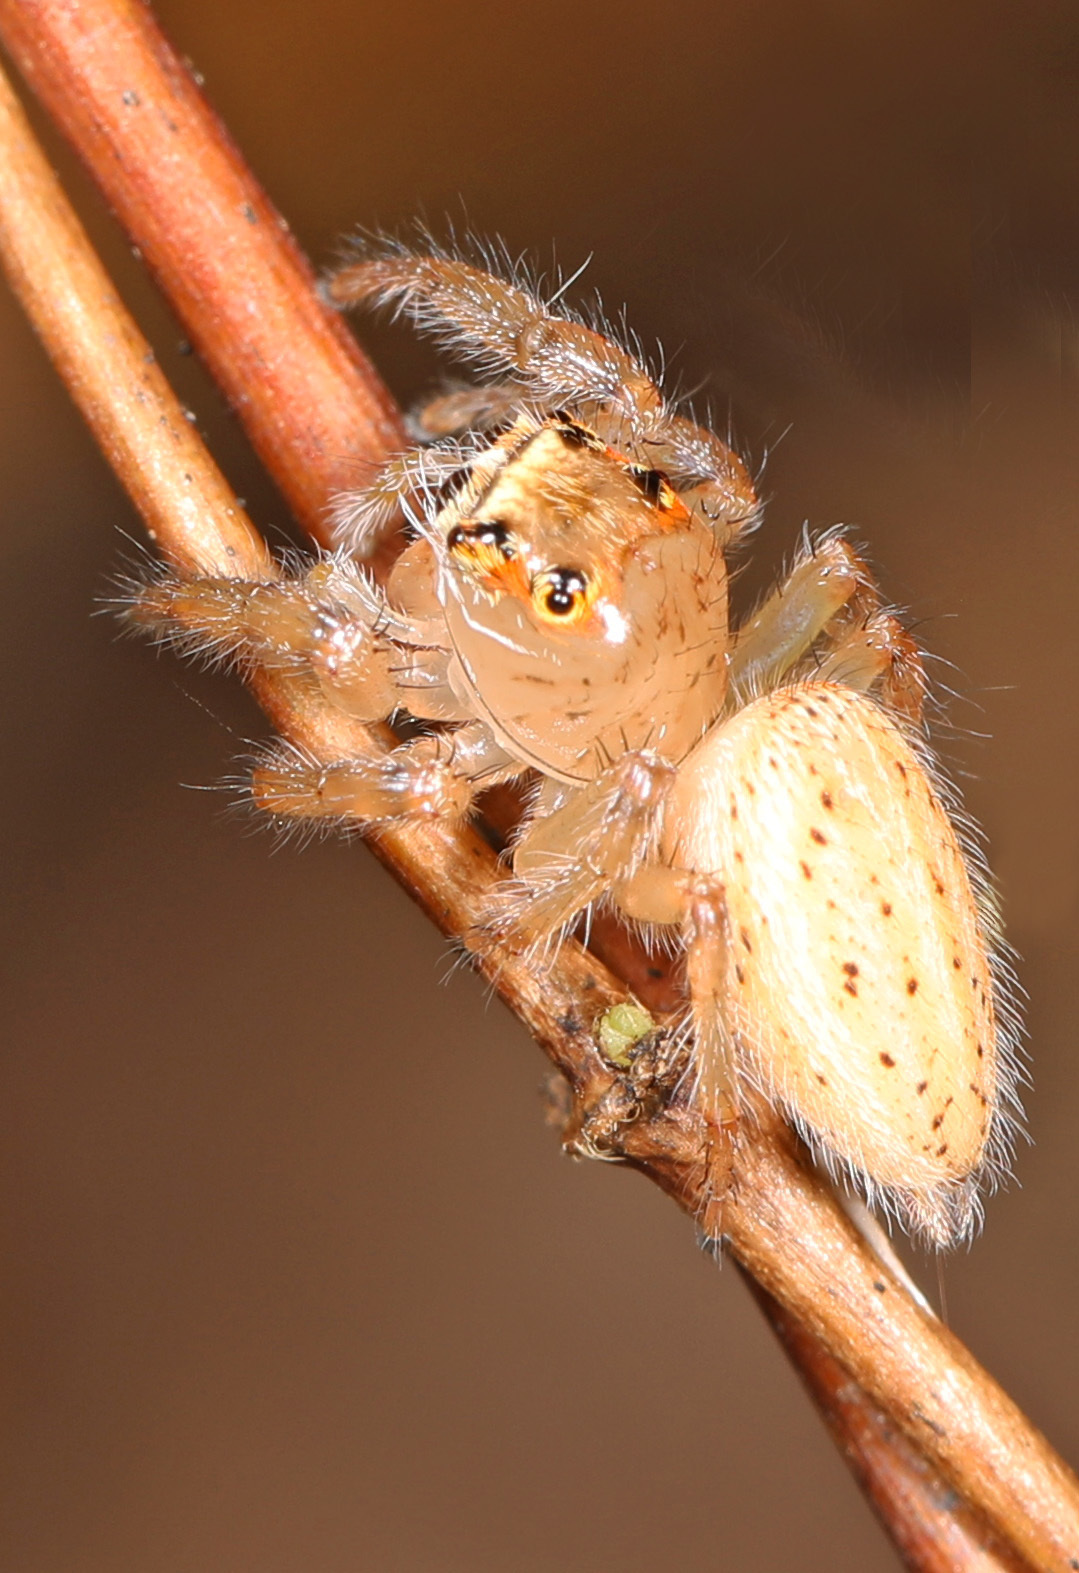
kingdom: Animalia
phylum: Arthropoda
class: Arachnida
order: Araneae
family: Salticidae
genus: Colonus
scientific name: Colonus sylvanus
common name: Jumping spiders
